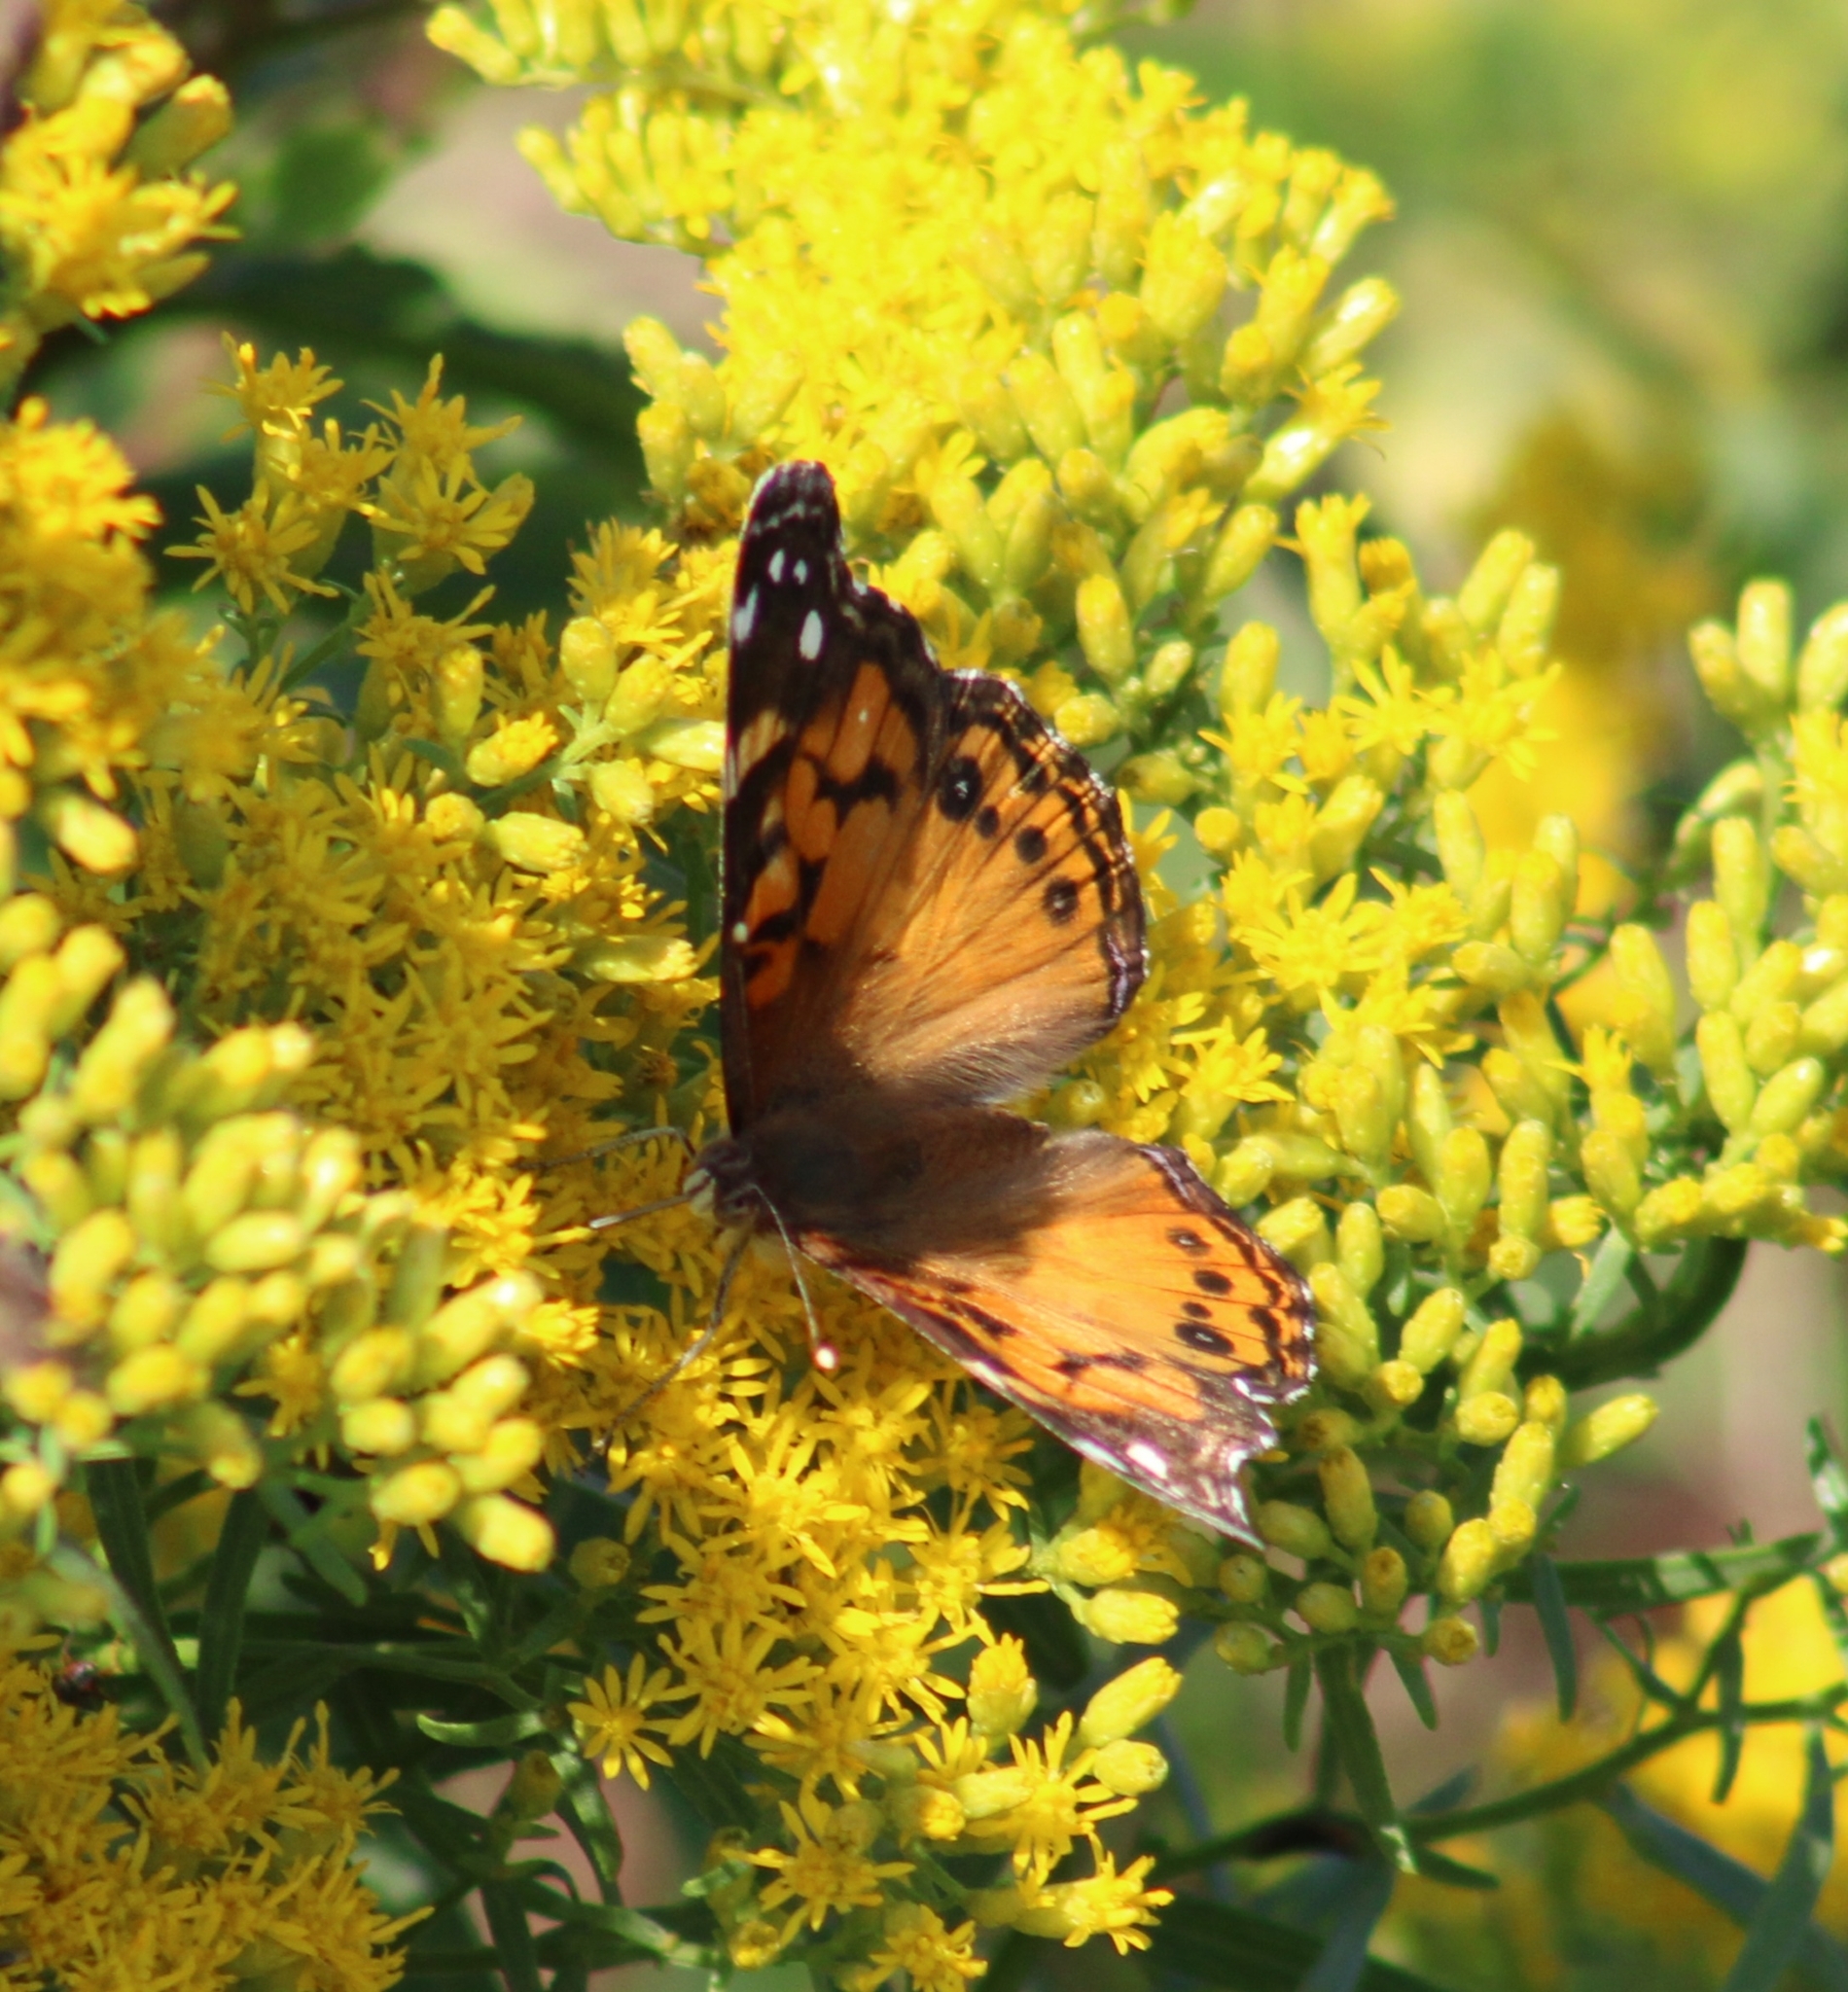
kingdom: Animalia
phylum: Arthropoda
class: Insecta
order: Lepidoptera
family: Nymphalidae
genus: Vanessa
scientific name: Vanessa virginiensis
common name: American lady
